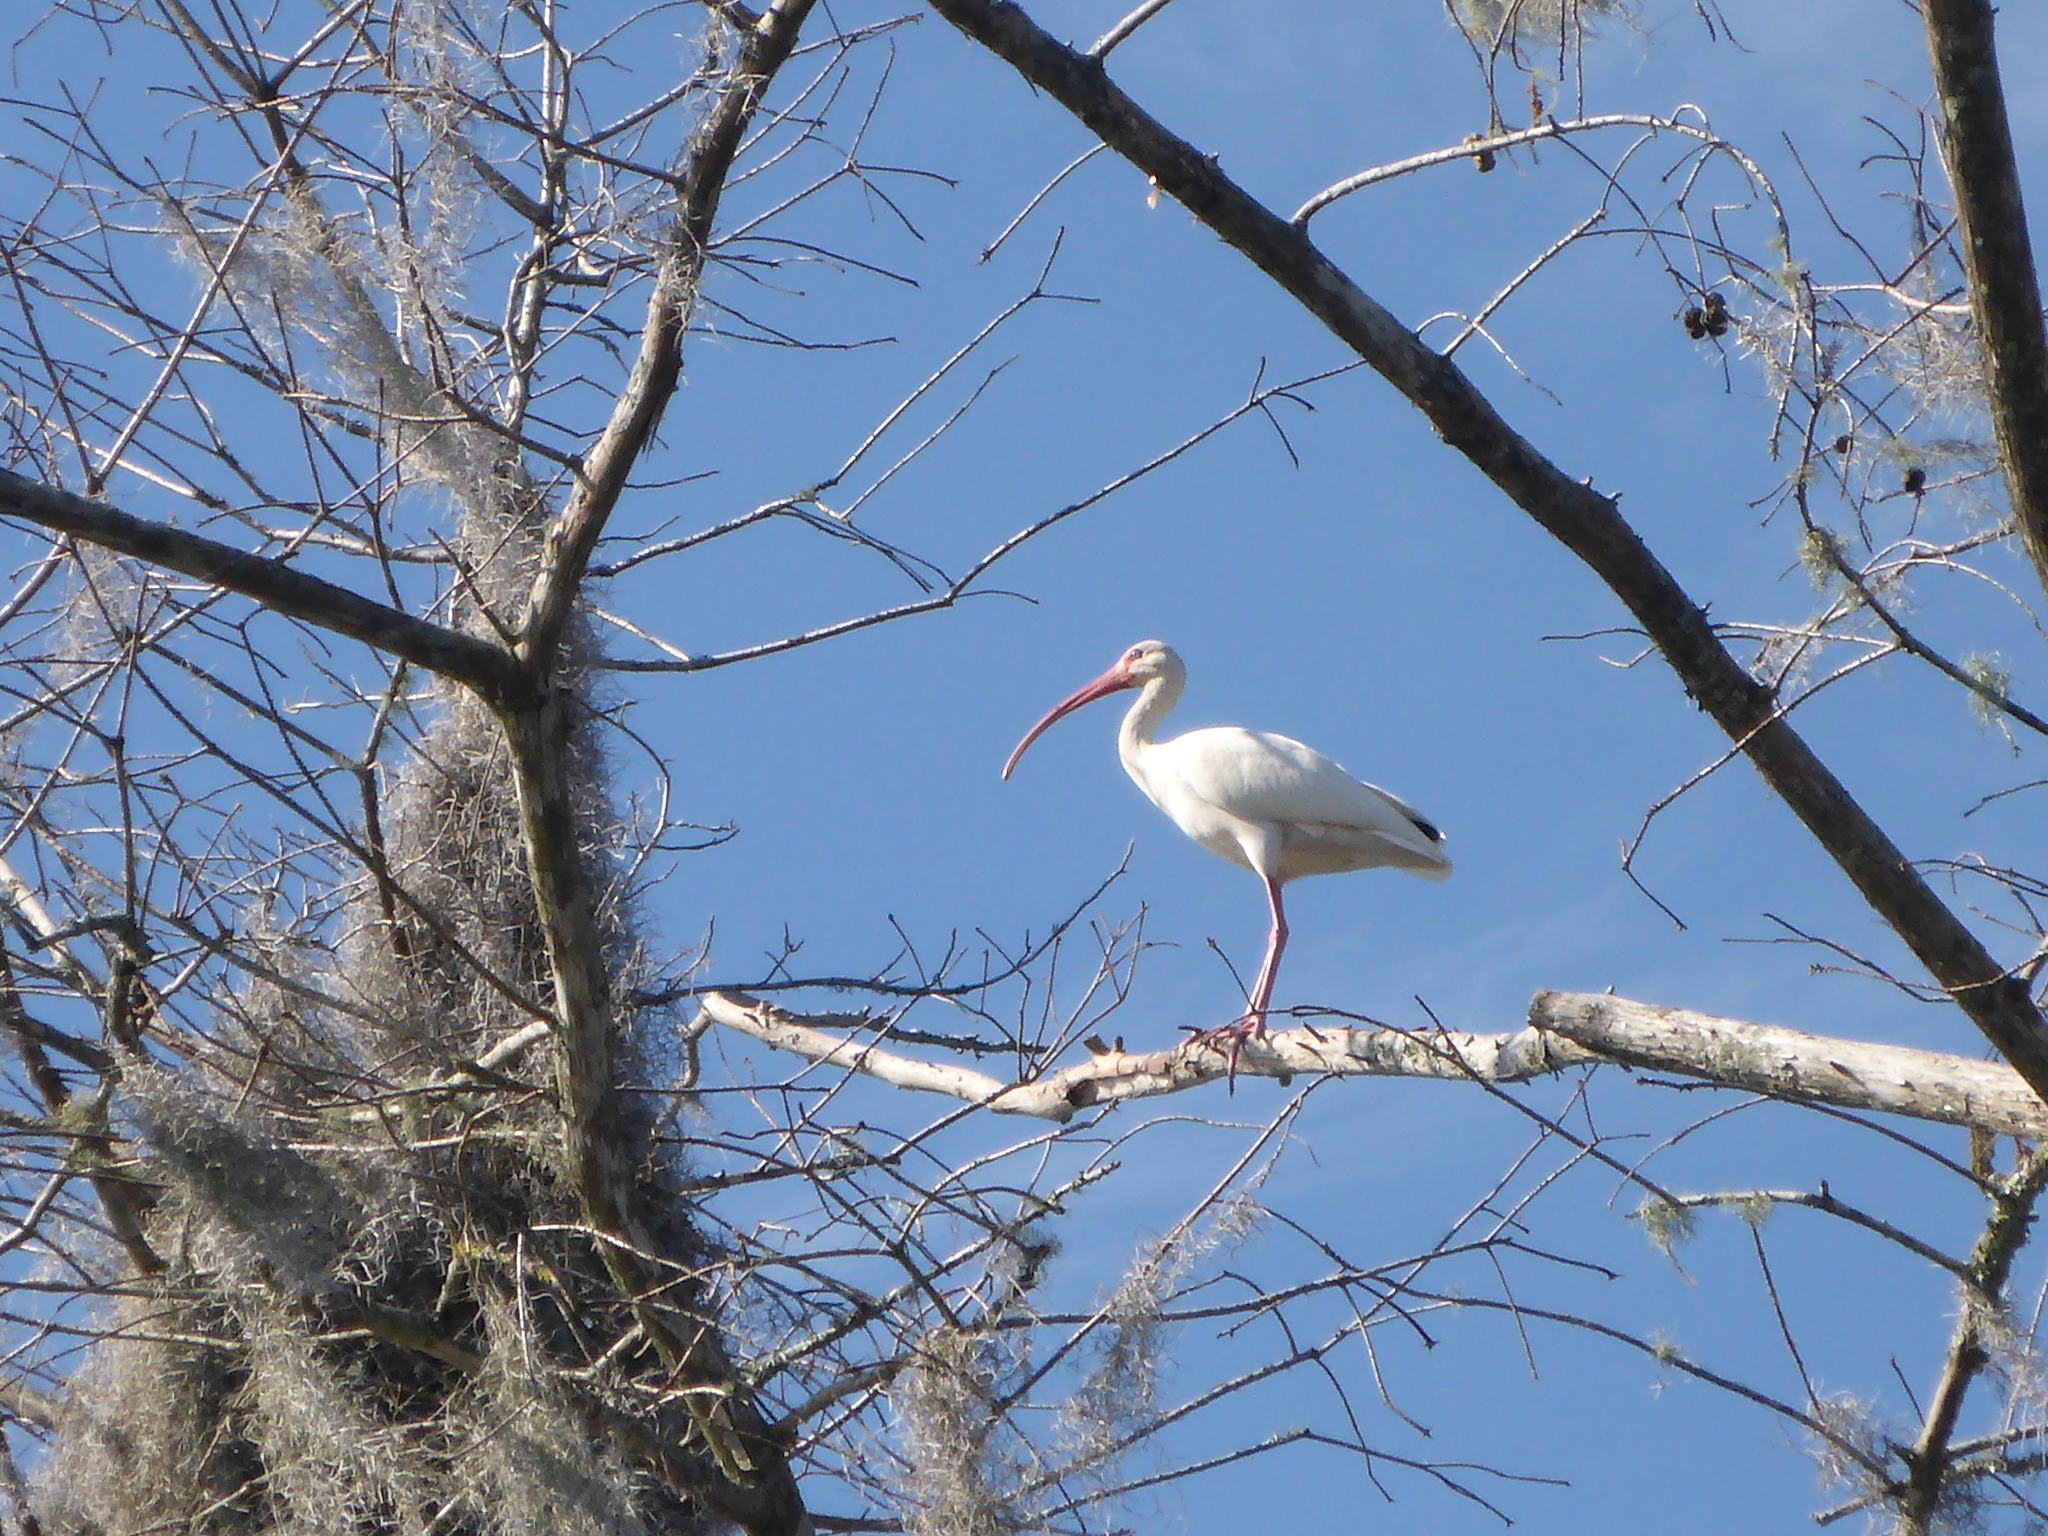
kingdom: Animalia
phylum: Chordata
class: Aves
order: Pelecaniformes
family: Threskiornithidae
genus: Eudocimus
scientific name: Eudocimus albus
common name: White ibis
